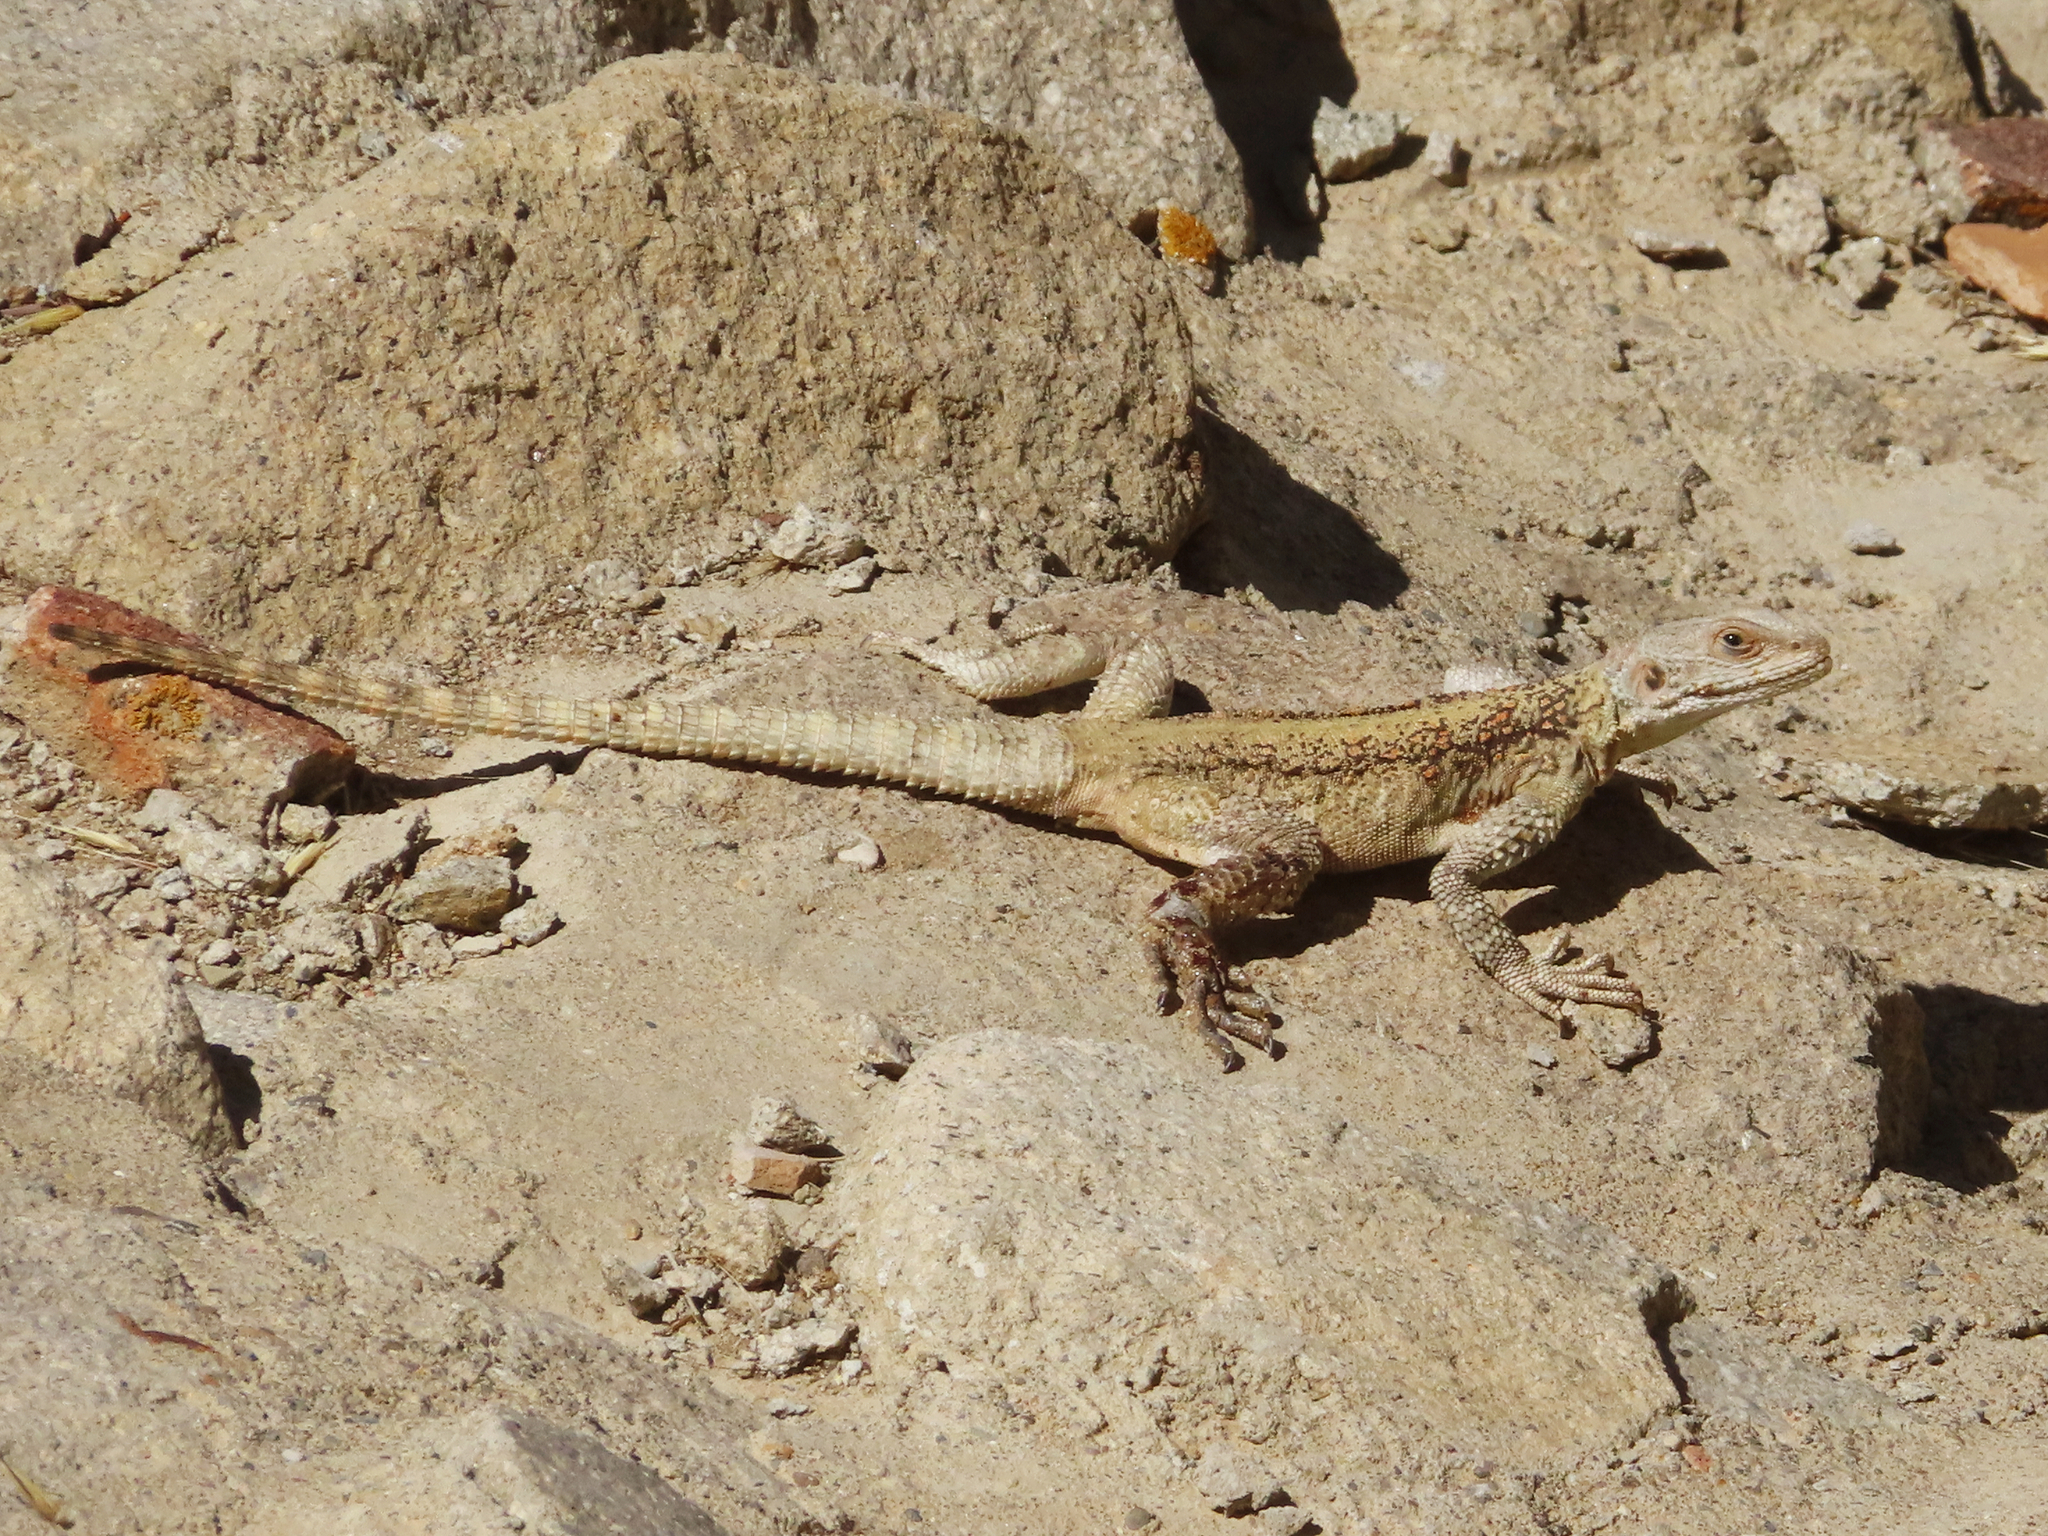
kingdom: Animalia
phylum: Chordata
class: Squamata
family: Agamidae
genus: Paralaudakia
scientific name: Paralaudakia caucasia
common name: Caucasian agama
